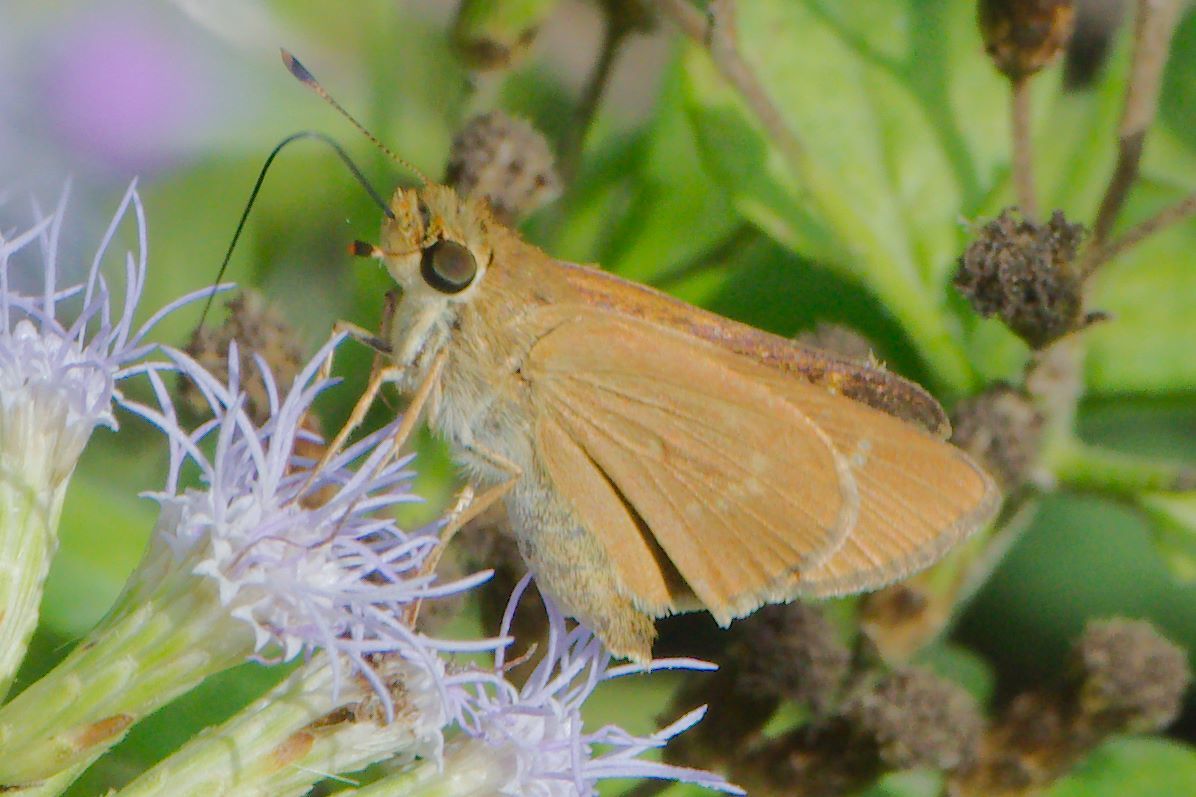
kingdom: Animalia
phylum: Arthropoda
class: Insecta
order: Lepidoptera
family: Hesperiidae
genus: Mellana
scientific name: Mellana eulogius
